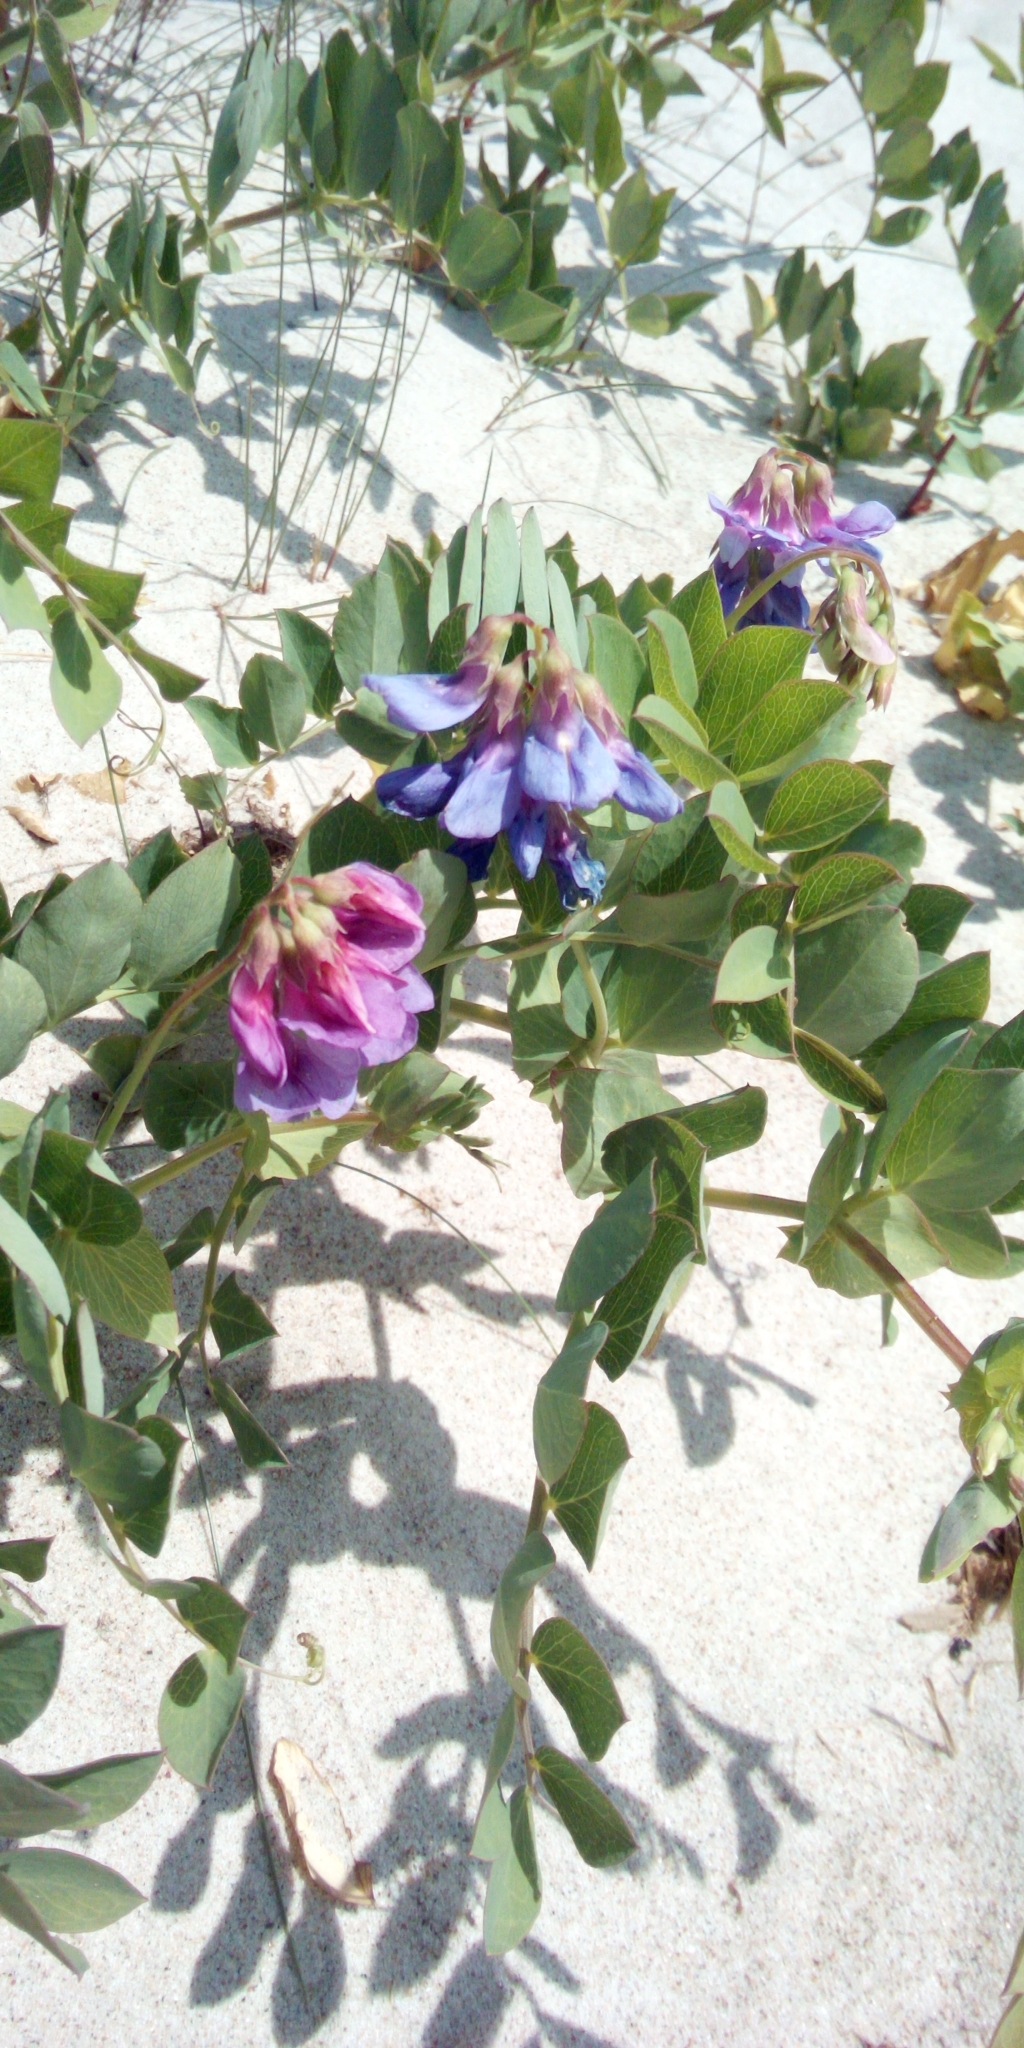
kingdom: Plantae
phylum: Tracheophyta
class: Magnoliopsida
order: Fabales
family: Fabaceae
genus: Lathyrus
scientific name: Lathyrus japonicus
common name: Sea pea
